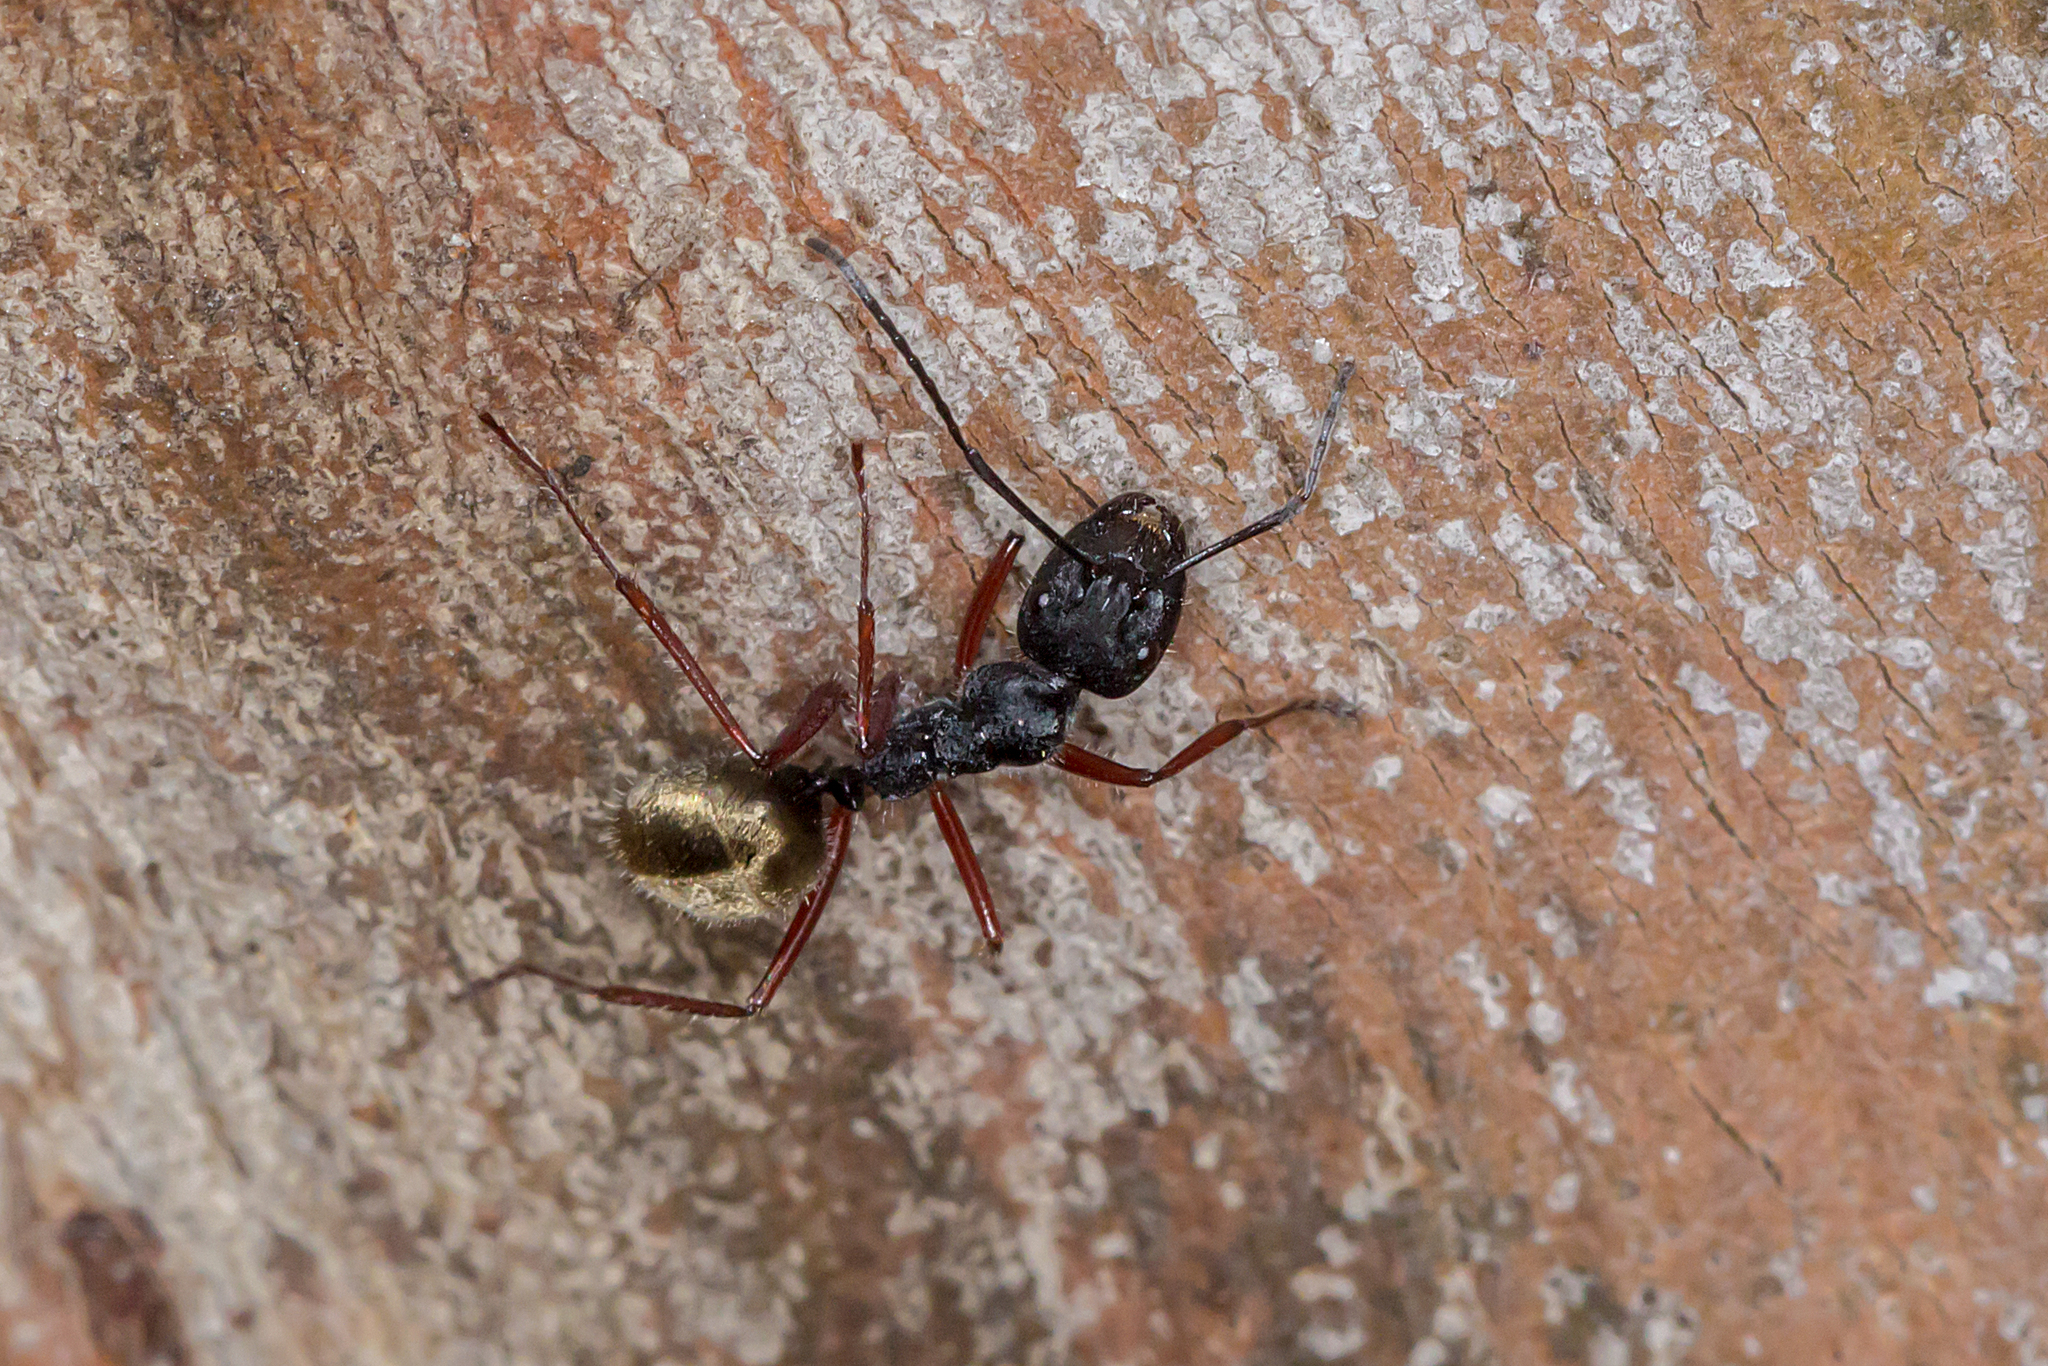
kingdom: Animalia
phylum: Arthropoda
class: Insecta
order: Hymenoptera
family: Formicidae
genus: Camponotus
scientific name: Camponotus suffusus
